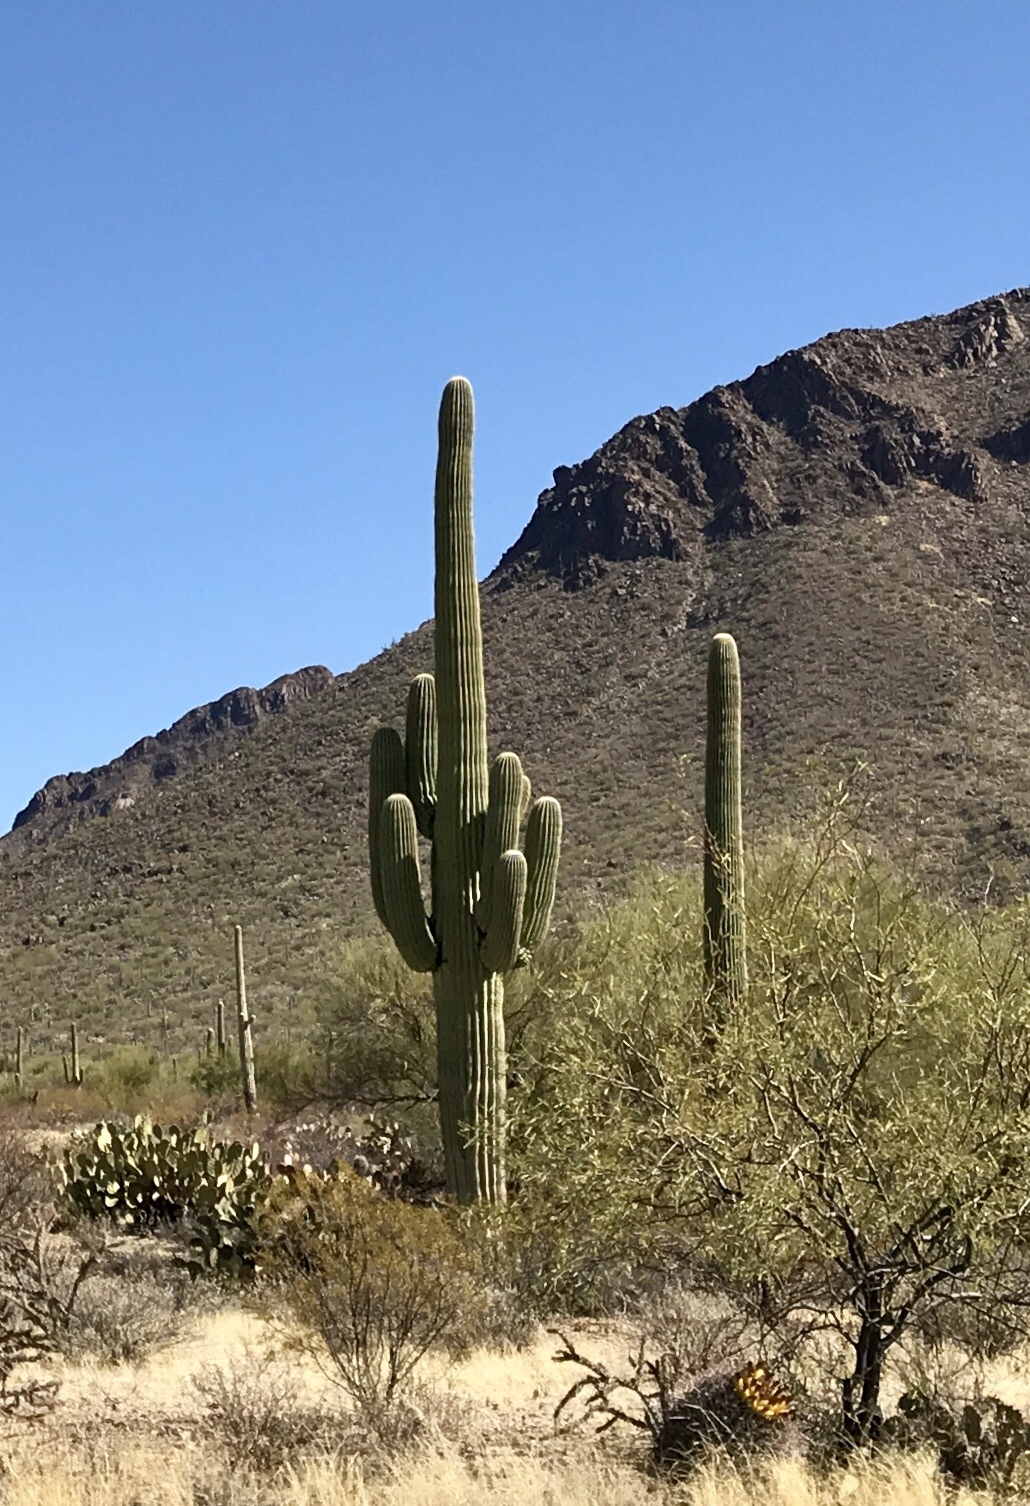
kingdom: Plantae
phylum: Tracheophyta
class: Magnoliopsida
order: Caryophyllales
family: Cactaceae
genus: Carnegiea
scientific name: Carnegiea gigantea
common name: Saguaro
